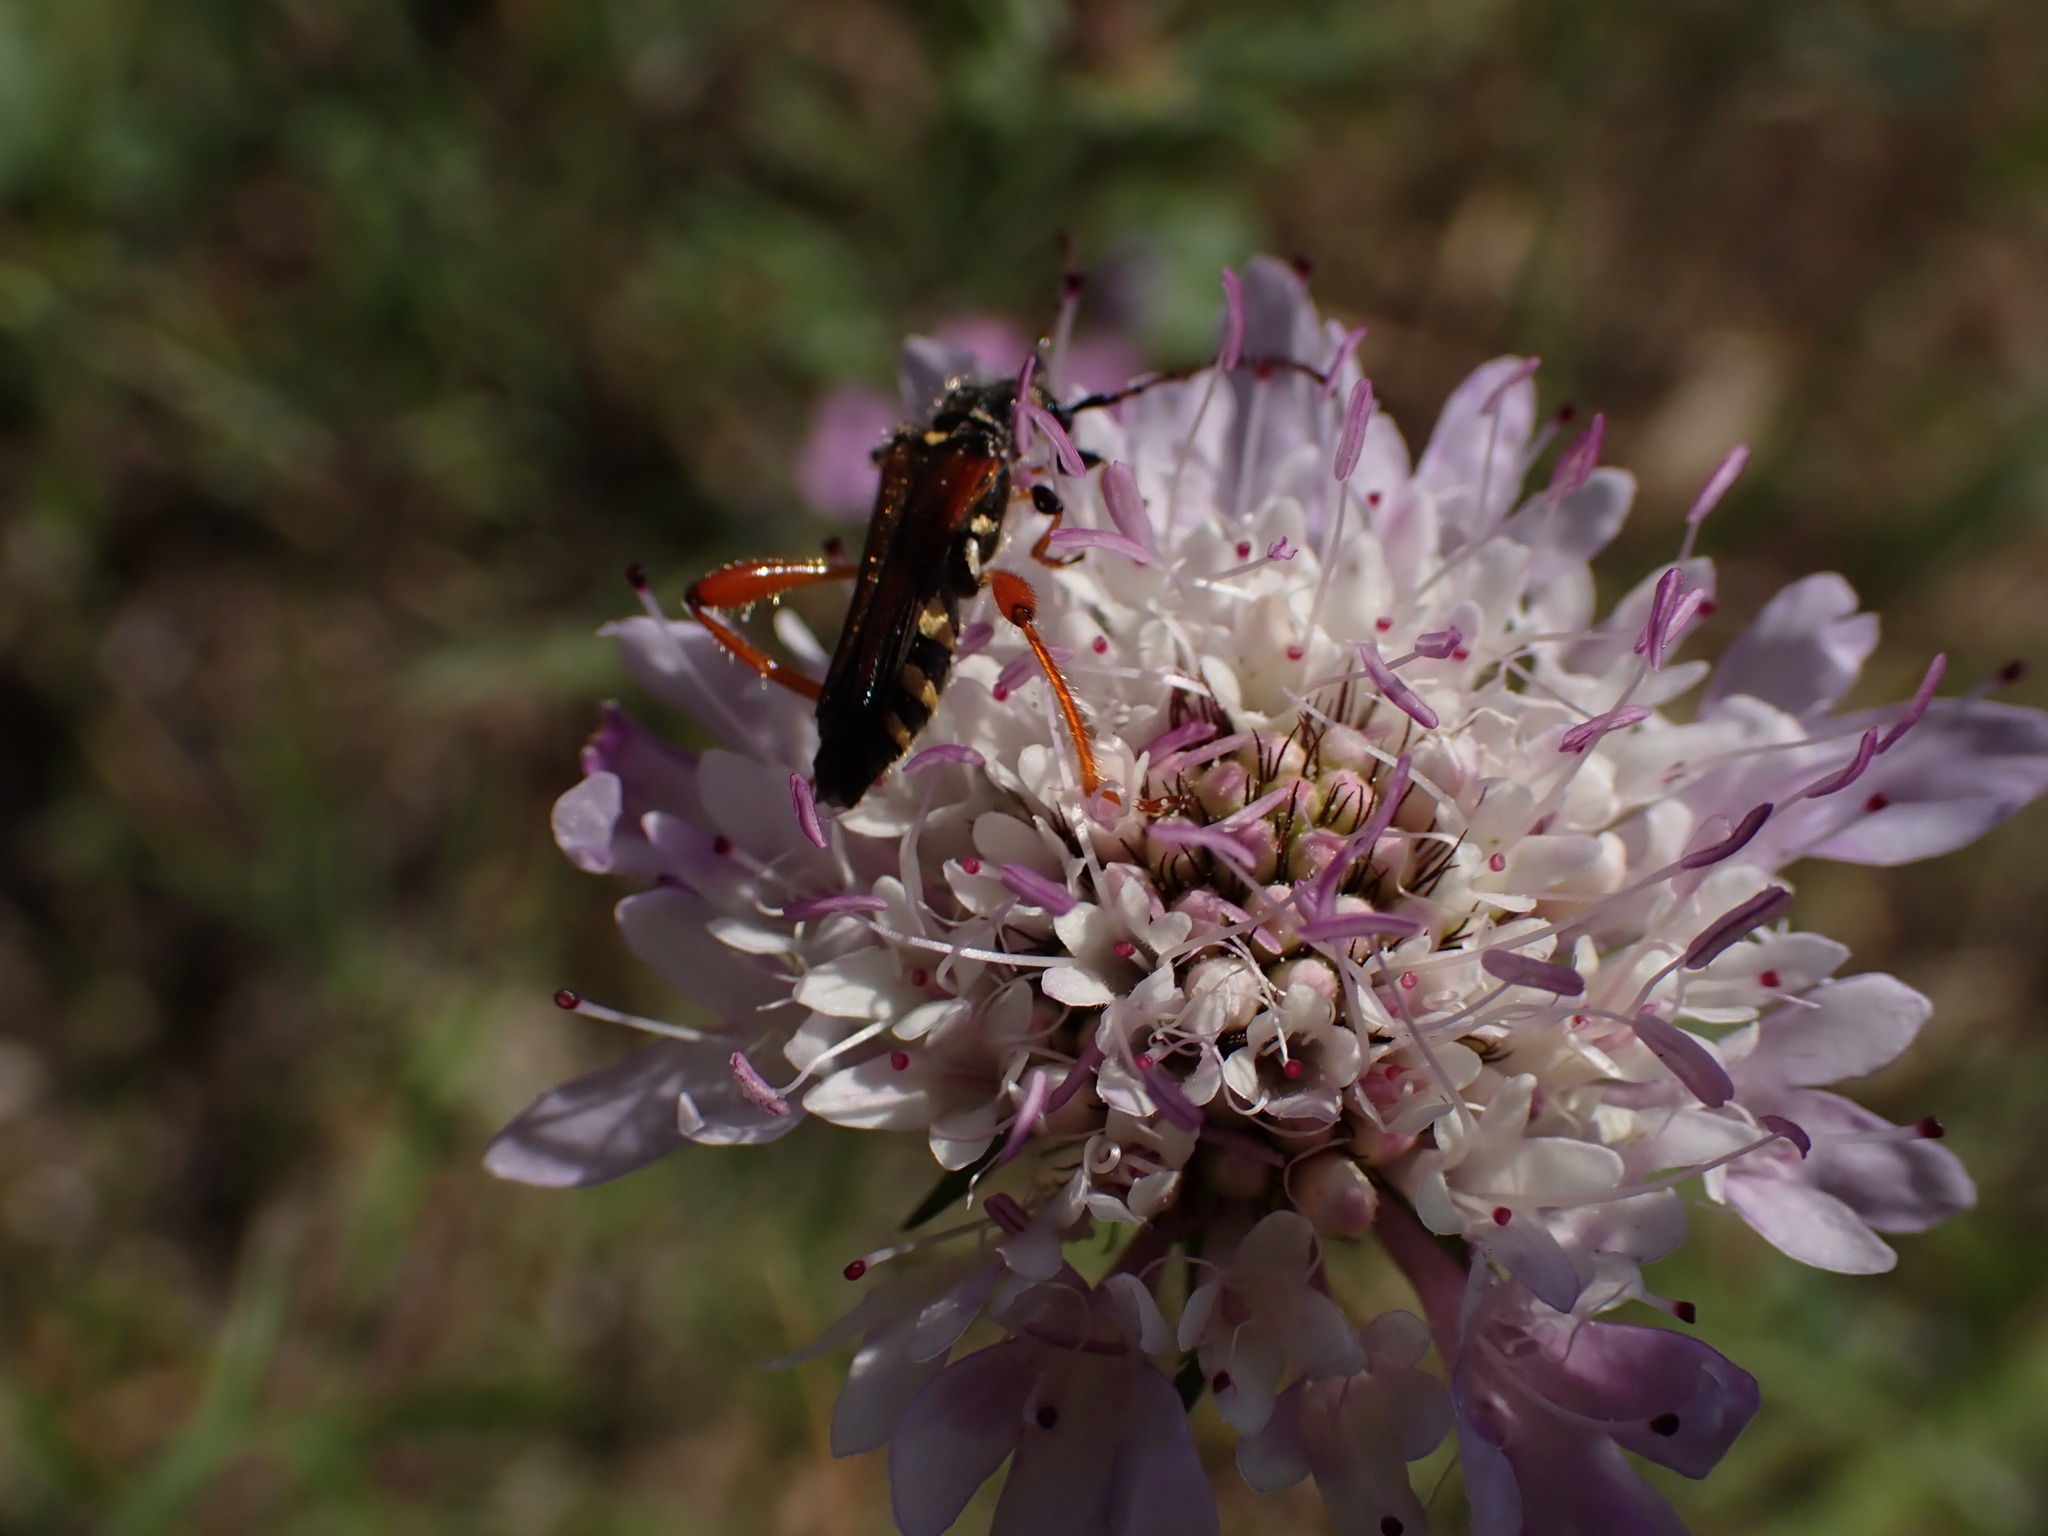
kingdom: Animalia
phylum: Arthropoda
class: Insecta
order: Coleoptera
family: Cerambycidae
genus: Stenopterus
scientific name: Stenopterus rufus
